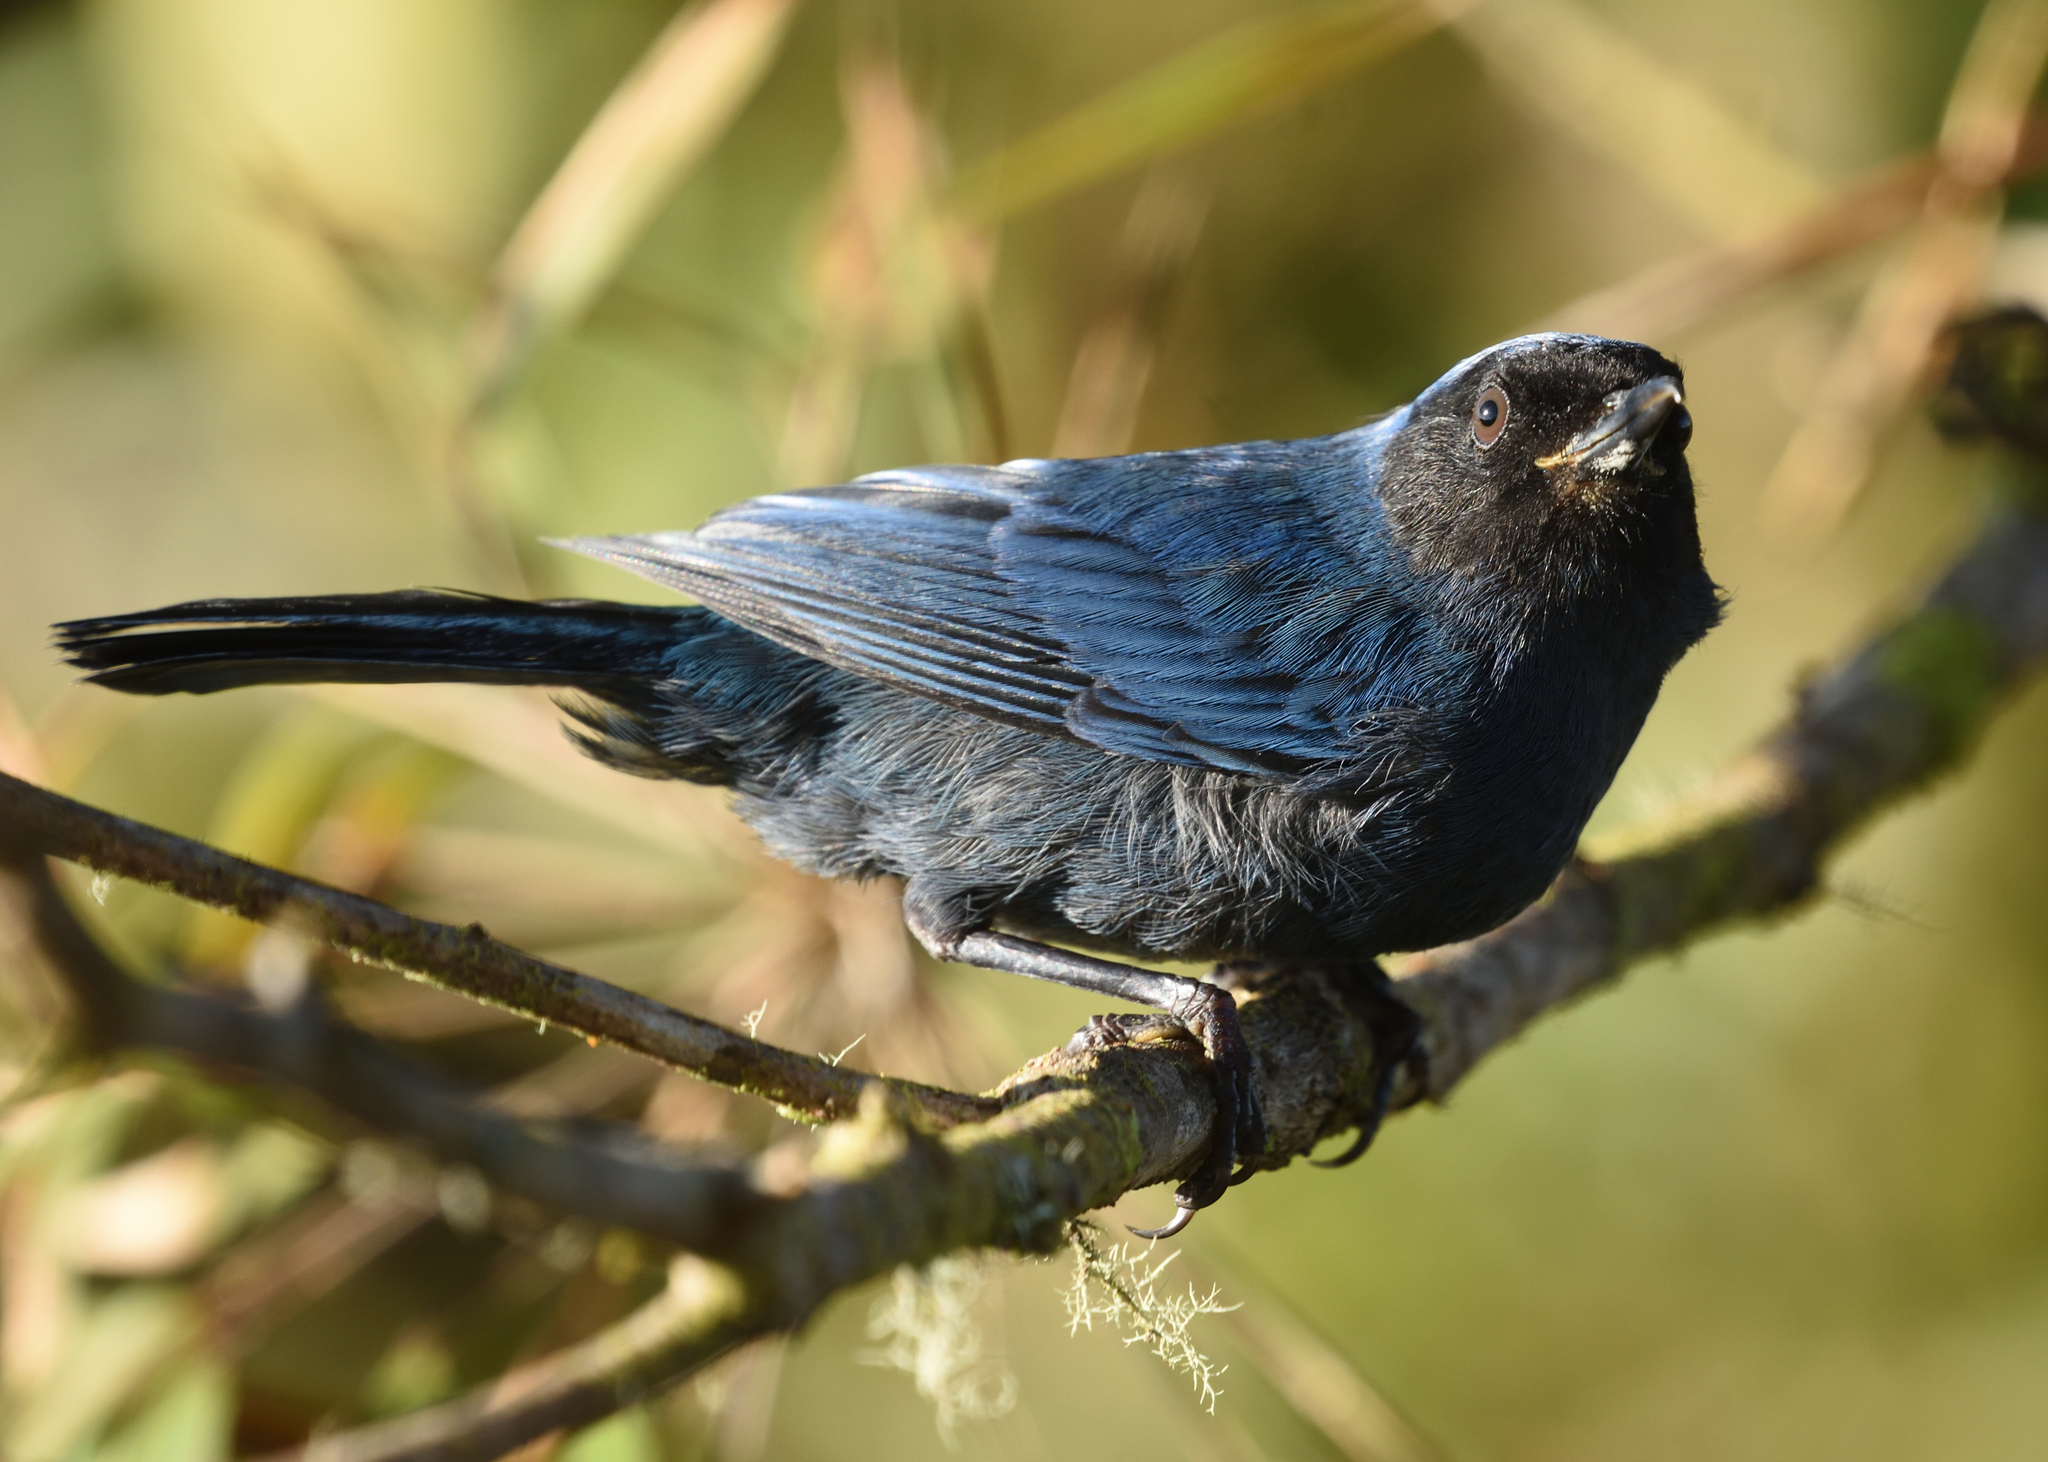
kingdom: Animalia
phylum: Chordata
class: Aves
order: Passeriformes
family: Thraupidae
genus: Diglossa
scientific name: Diglossa cyanea
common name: Masked flowerpiercer
